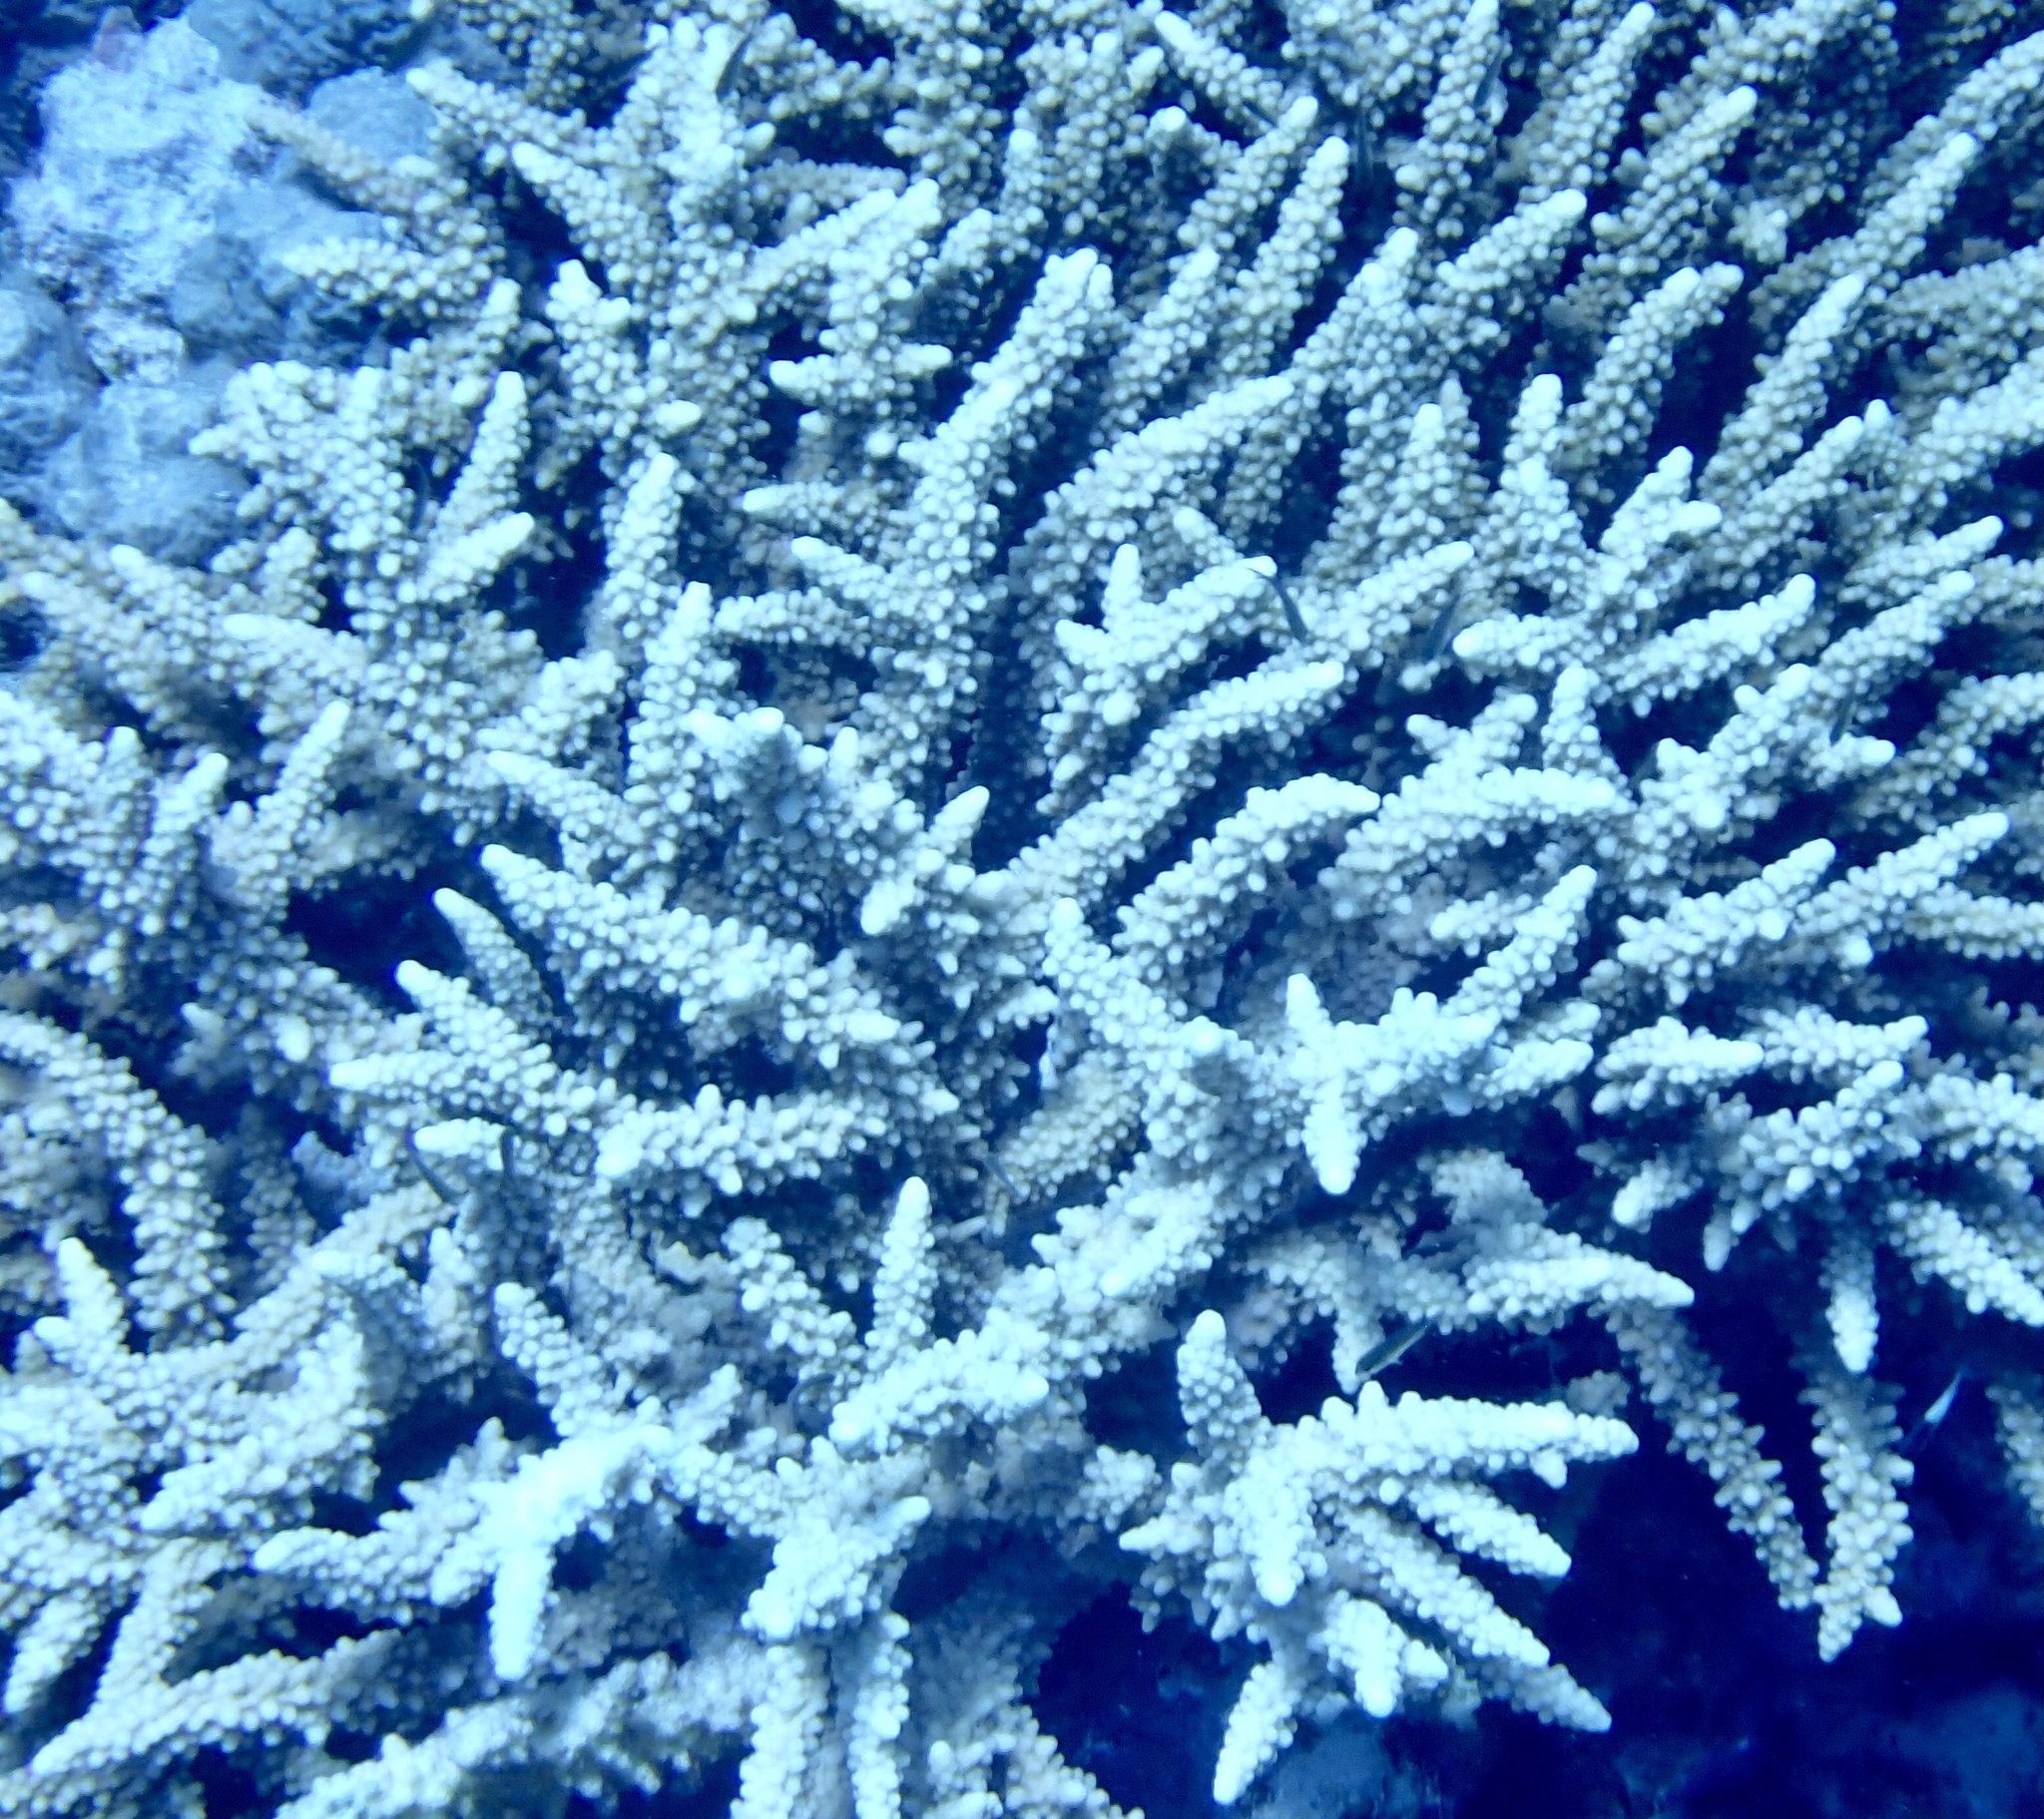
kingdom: Animalia
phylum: Cnidaria
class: Anthozoa
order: Scleractinia
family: Acroporidae
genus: Acropora
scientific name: Acropora hemprichii
